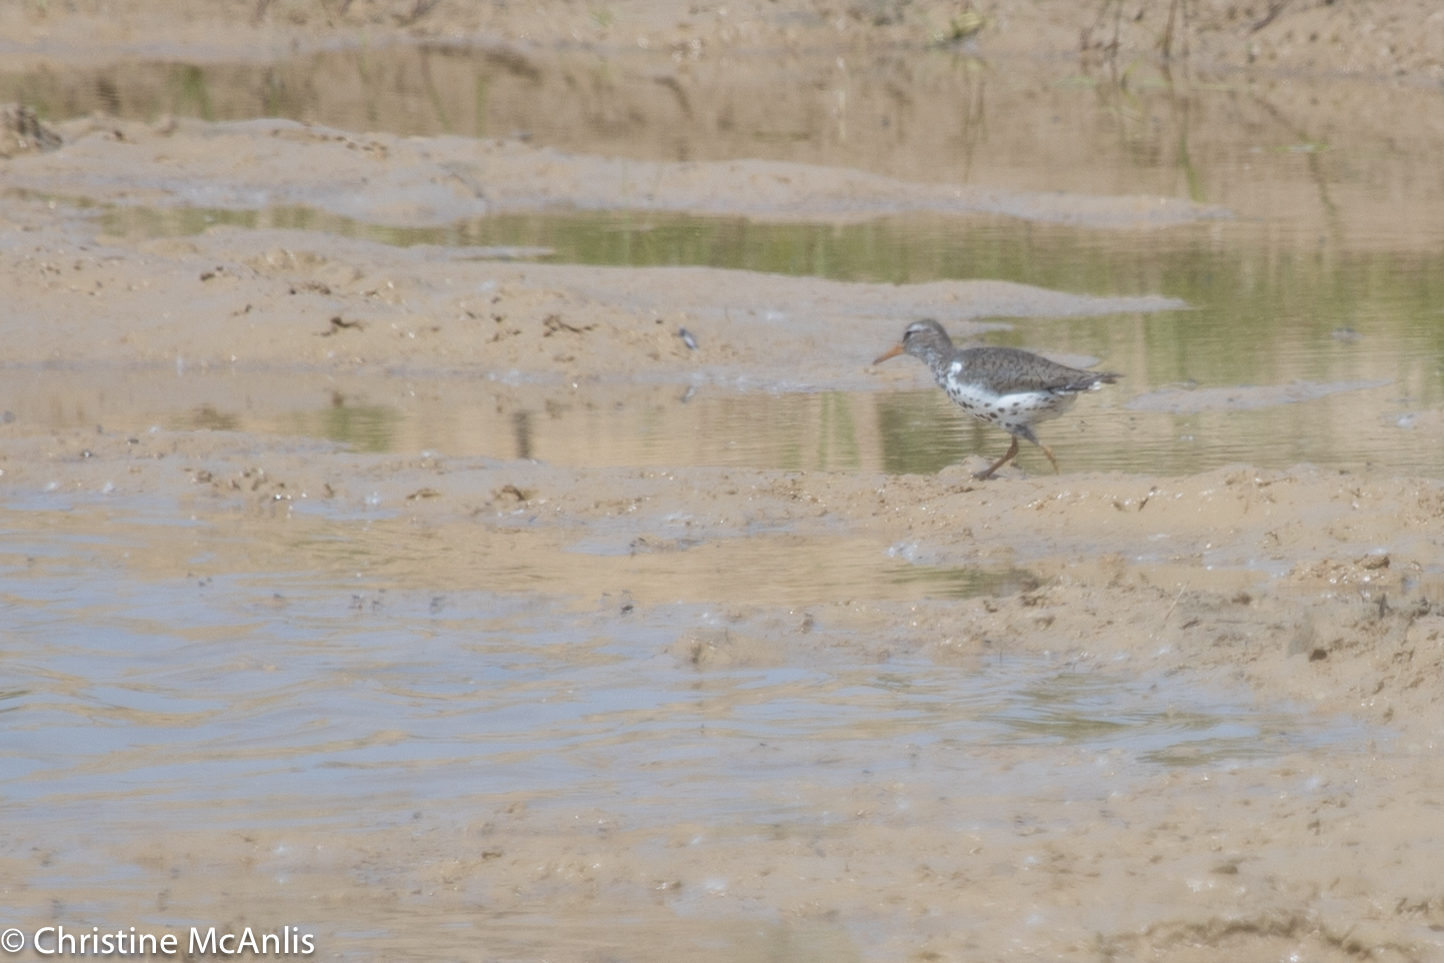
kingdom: Animalia
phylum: Chordata
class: Aves
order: Charadriiformes
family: Scolopacidae
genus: Actitis
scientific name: Actitis macularius
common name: Spotted sandpiper
